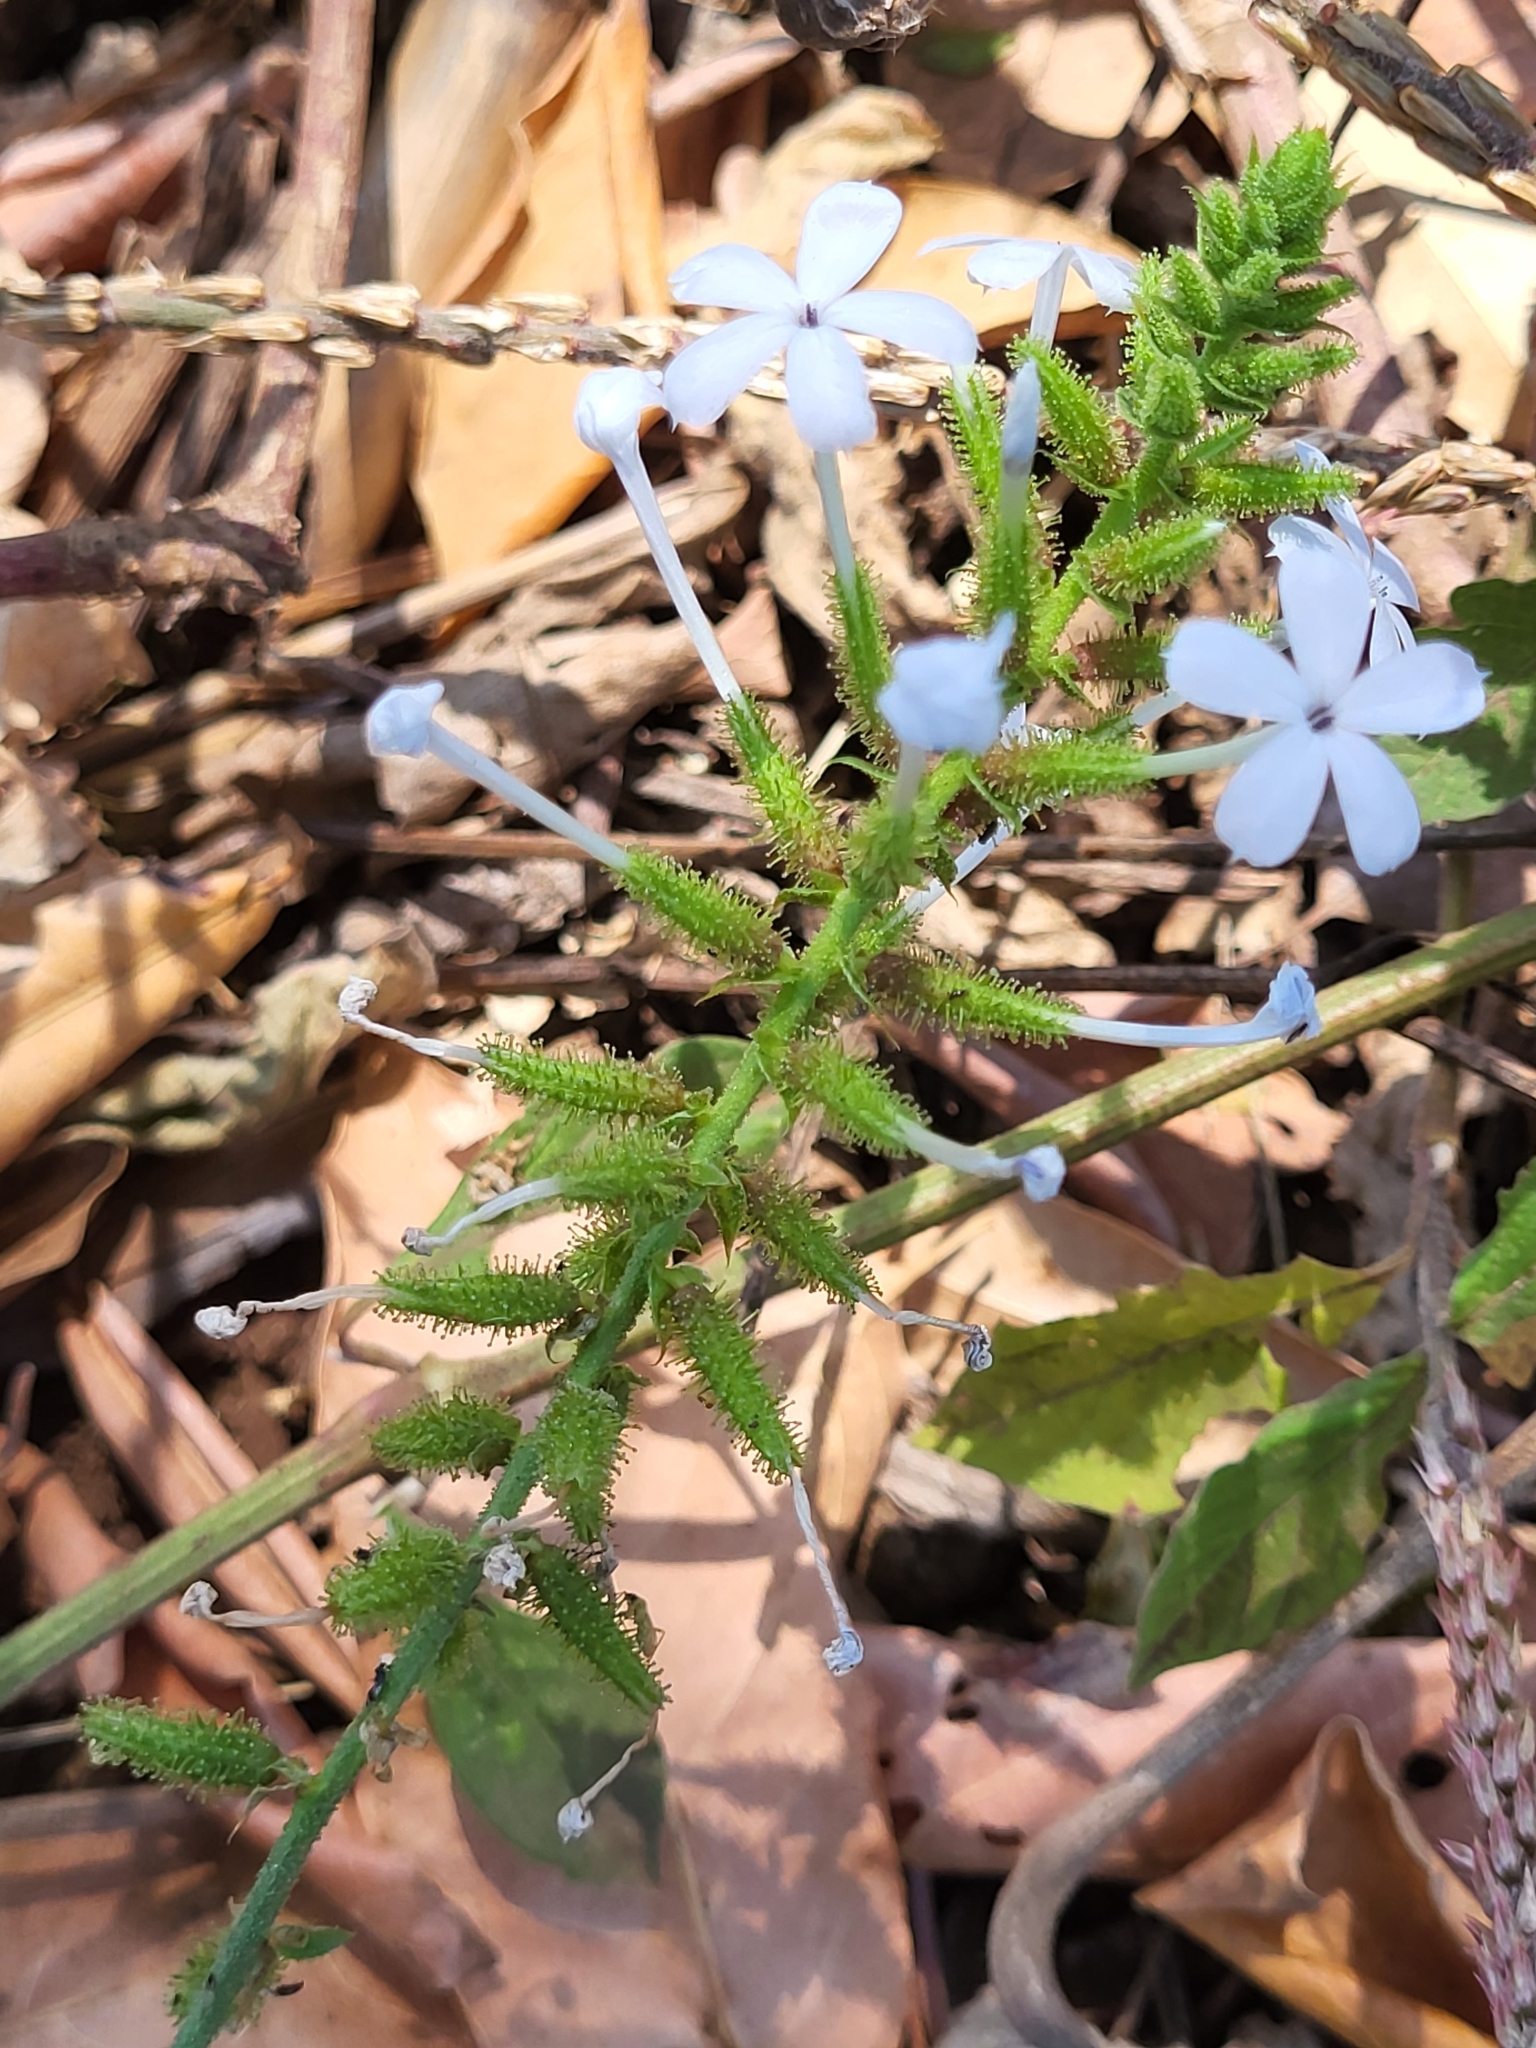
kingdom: Plantae
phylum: Tracheophyta
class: Magnoliopsida
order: Caryophyllales
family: Plumbaginaceae
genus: Plumbago
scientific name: Plumbago zeylanica
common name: Doctorbush
